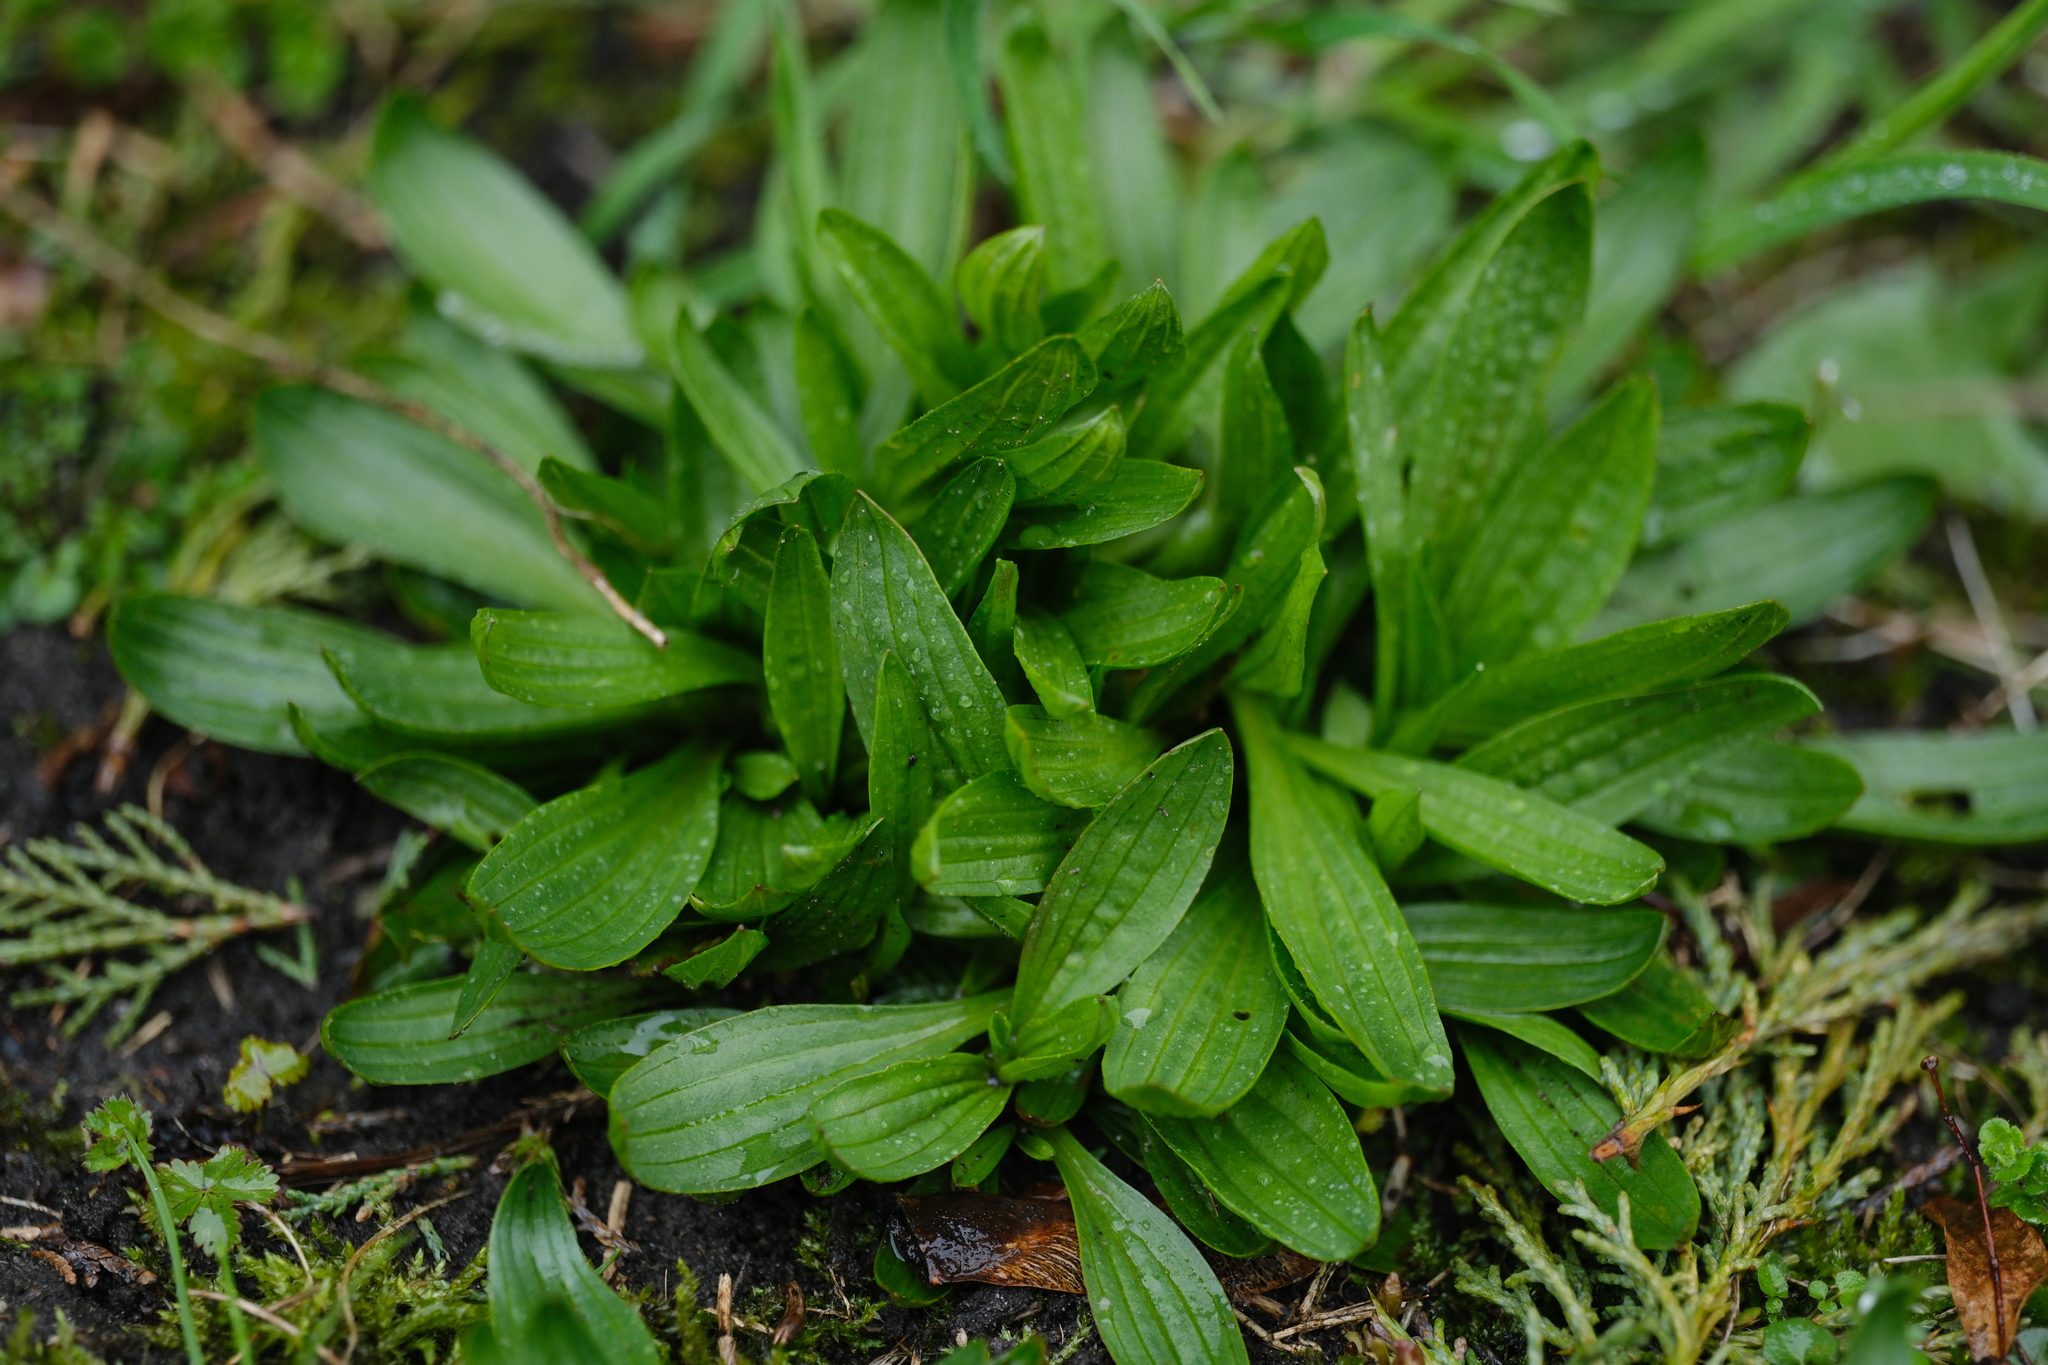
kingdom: Plantae
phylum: Tracheophyta
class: Magnoliopsida
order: Lamiales
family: Plantaginaceae
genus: Plantago
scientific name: Plantago lanceolata
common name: Ribwort plantain
